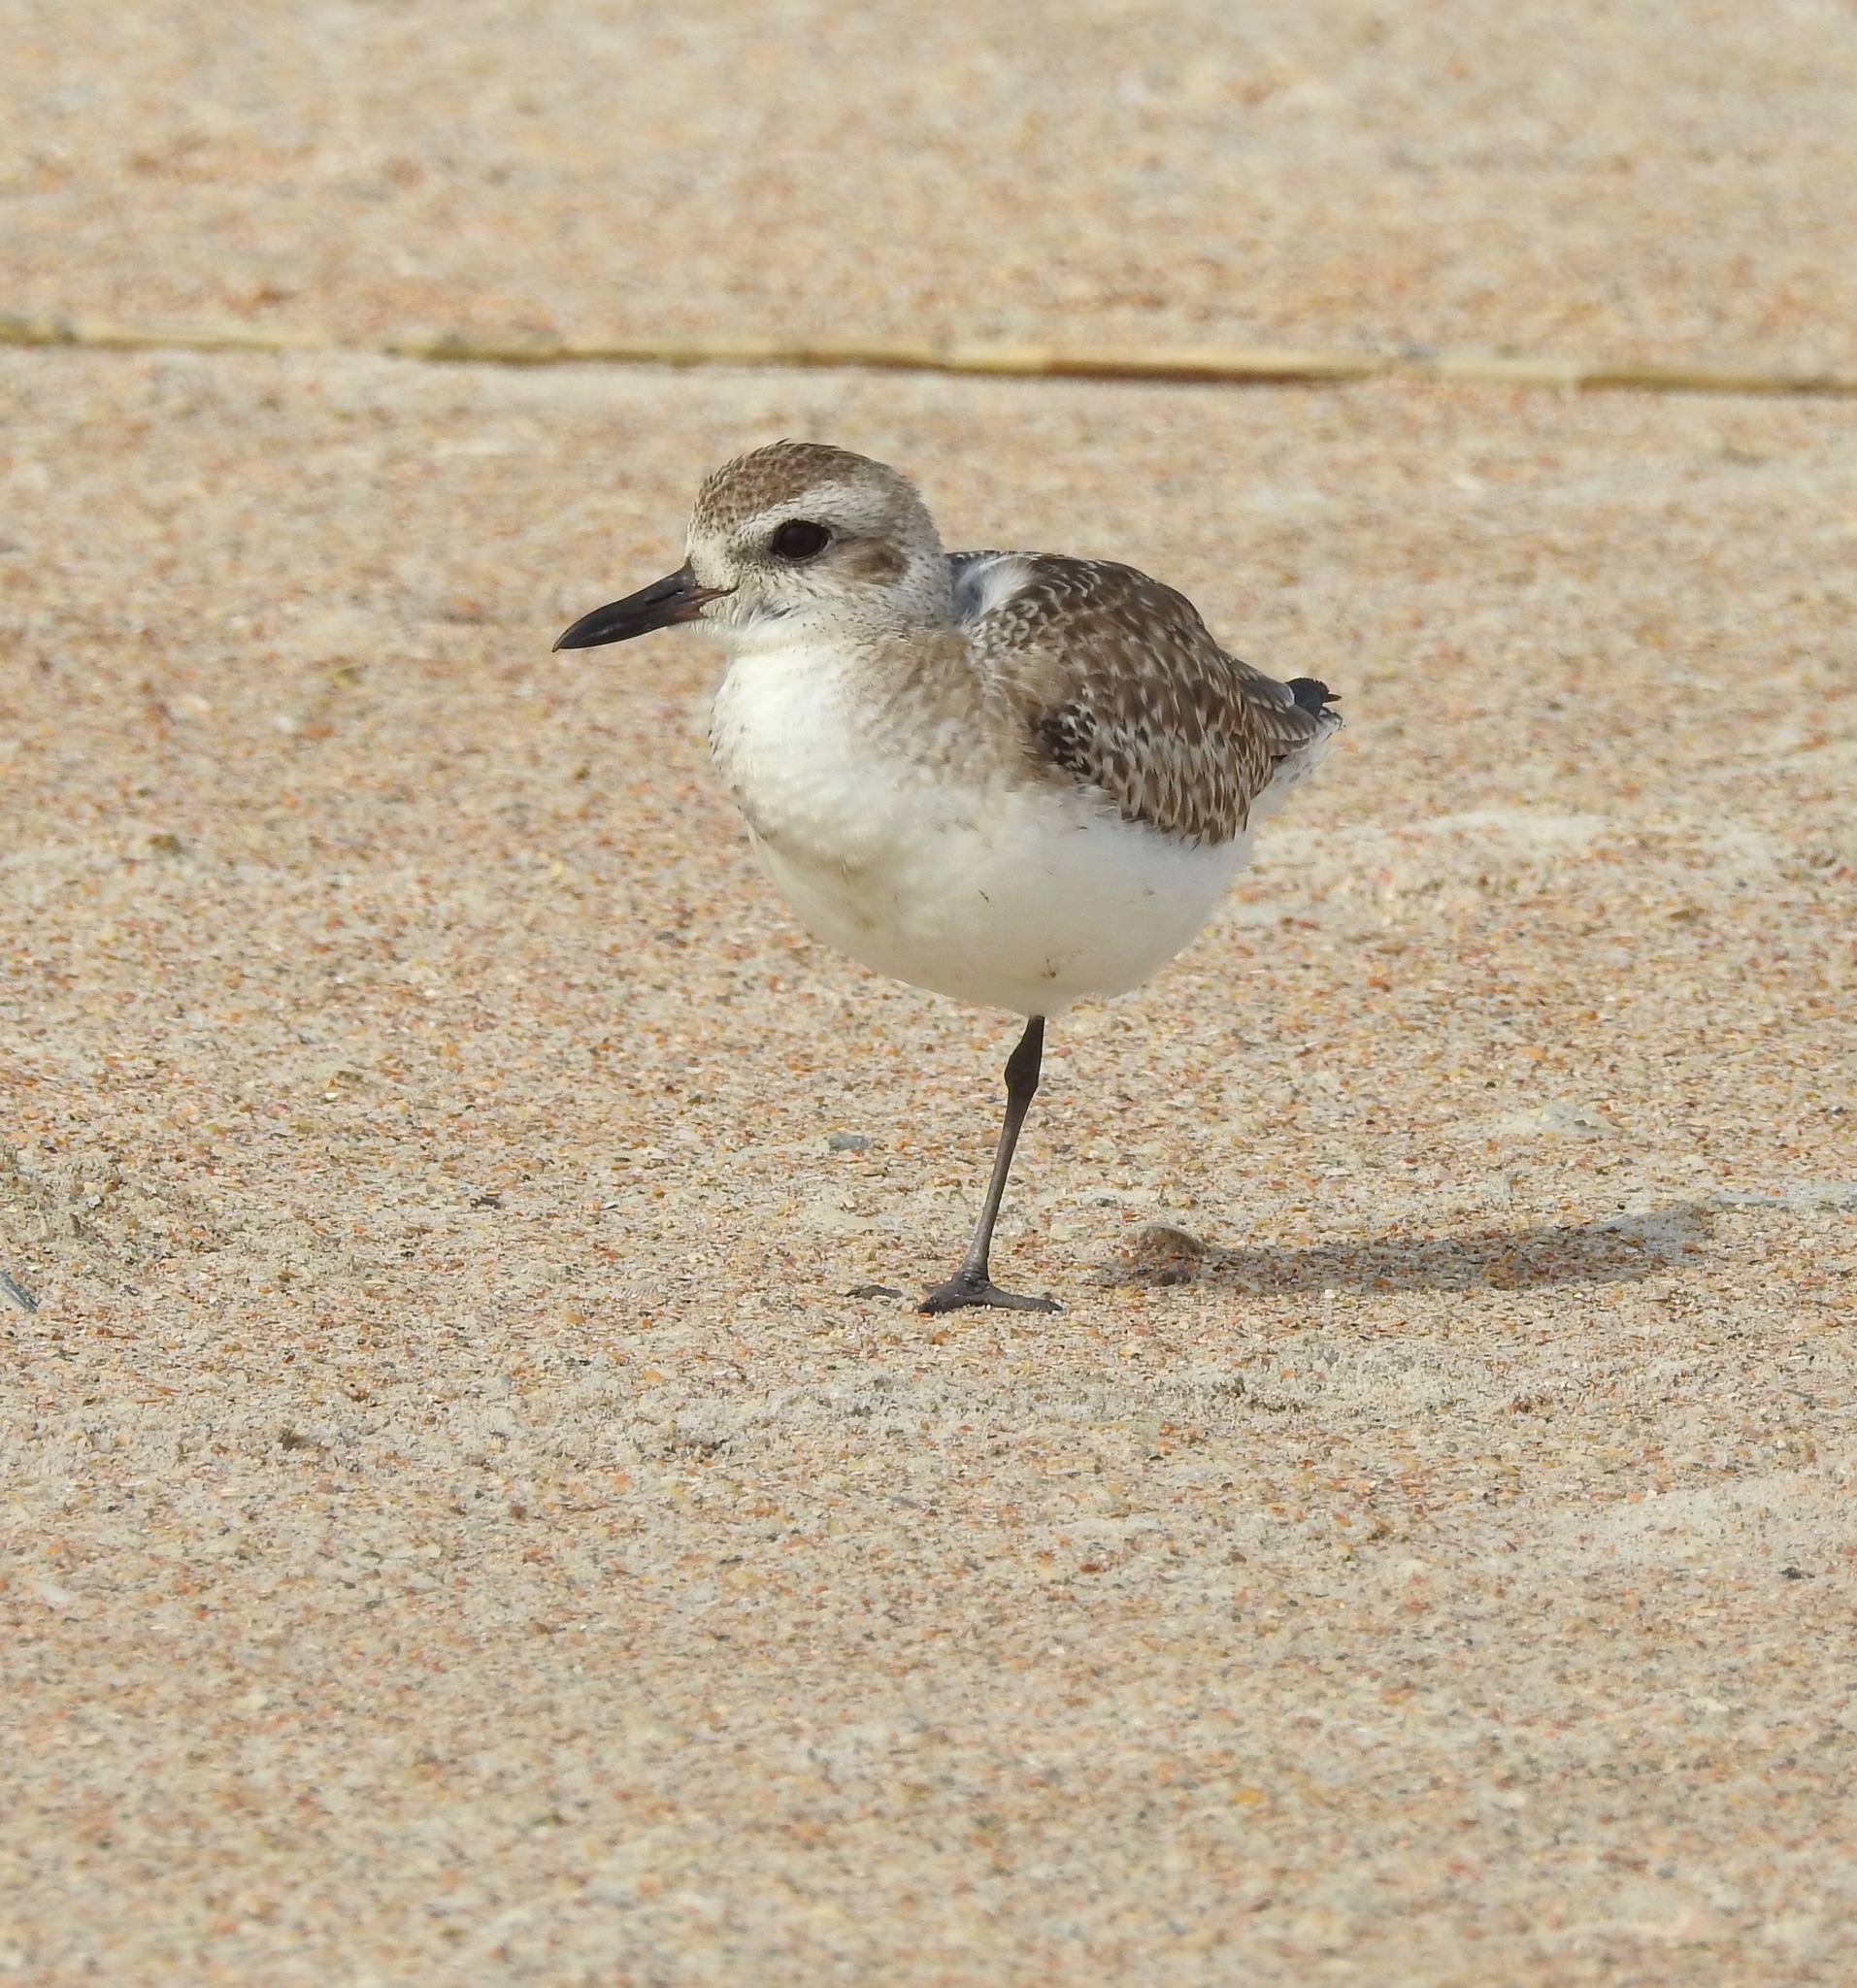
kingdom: Animalia
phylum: Chordata
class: Aves
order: Charadriiformes
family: Charadriidae
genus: Pluvialis
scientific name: Pluvialis squatarola
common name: Grey plover
